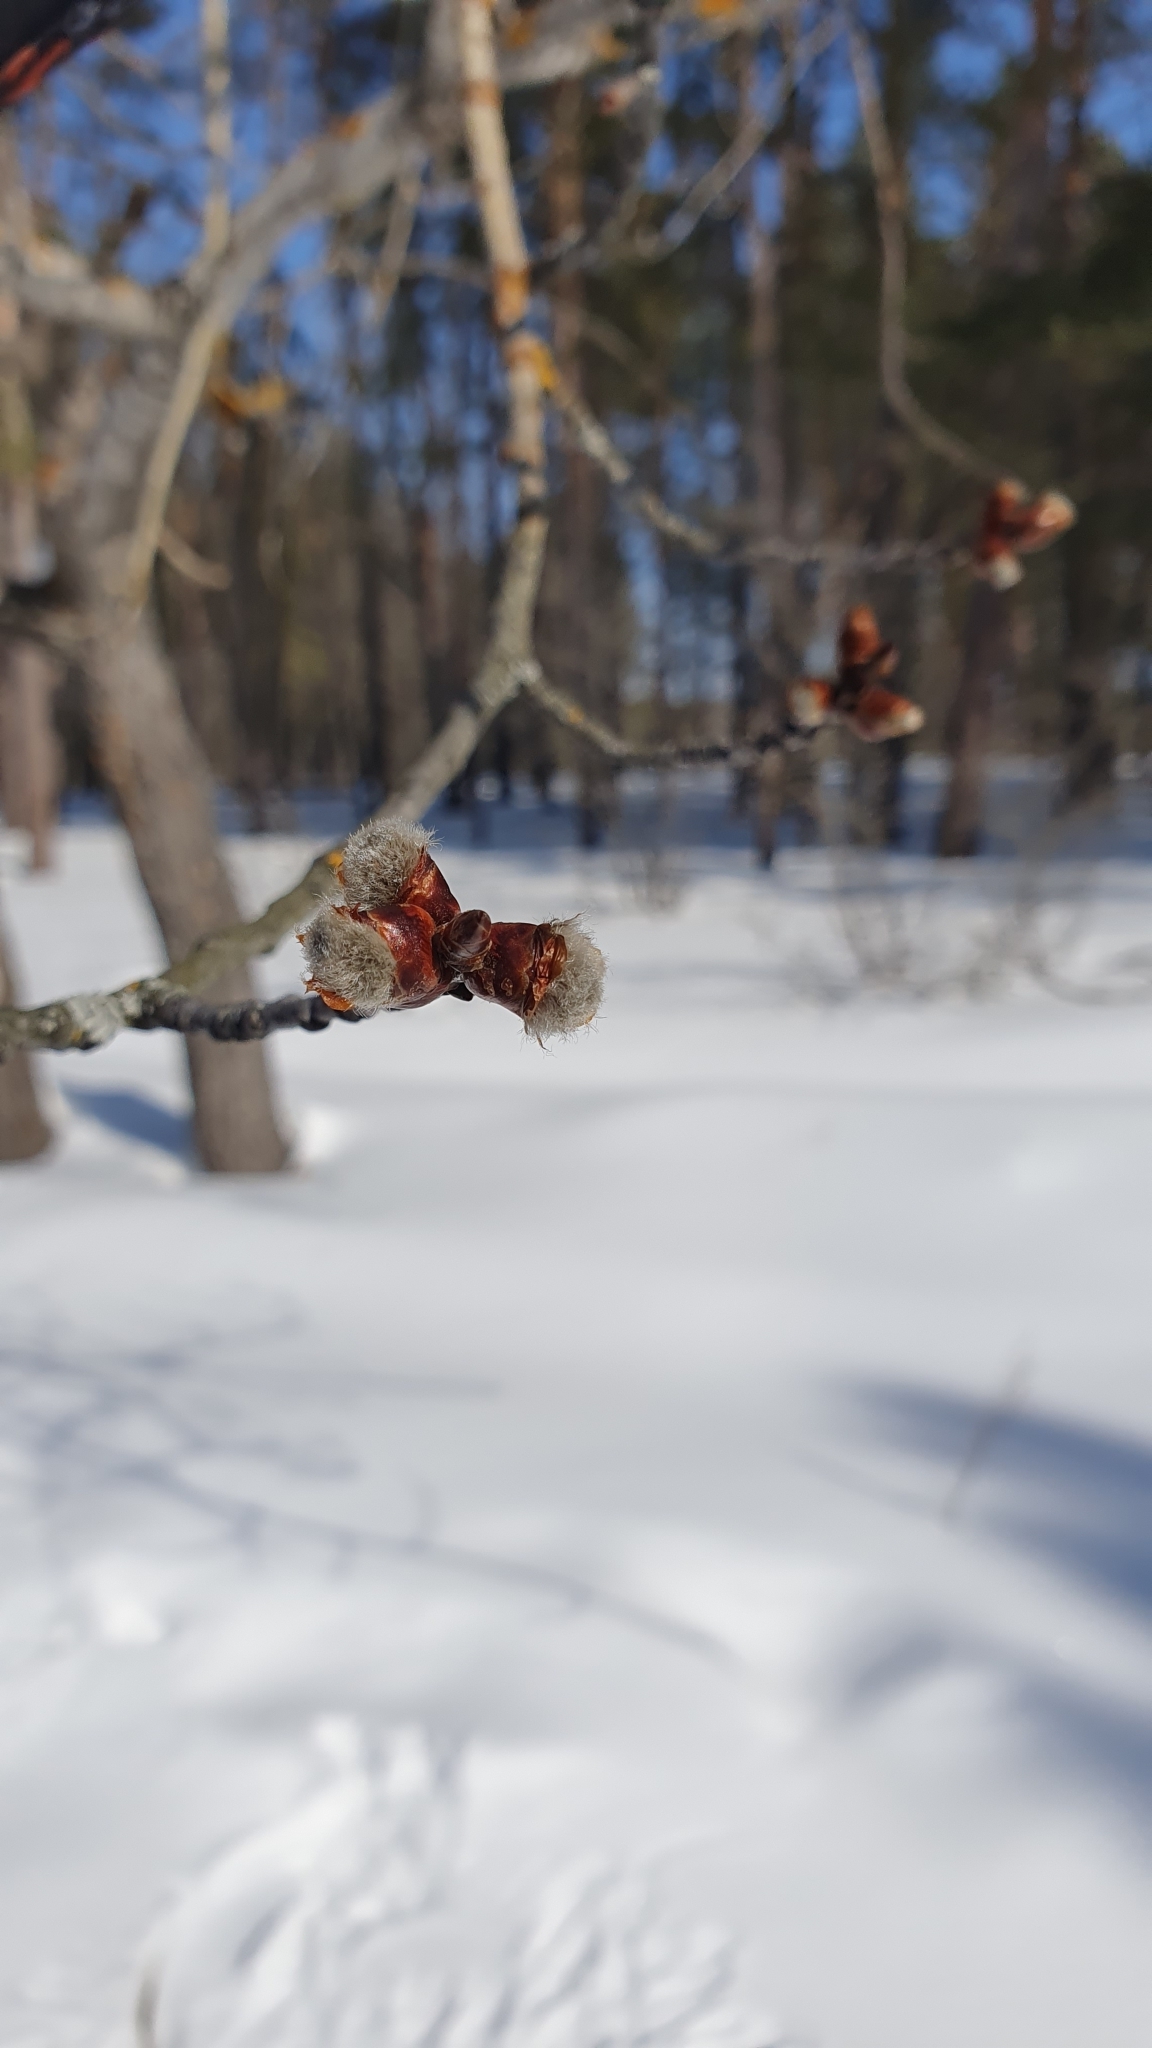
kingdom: Plantae
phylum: Tracheophyta
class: Magnoliopsida
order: Malpighiales
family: Salicaceae
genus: Populus
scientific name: Populus tremula
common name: European aspen
